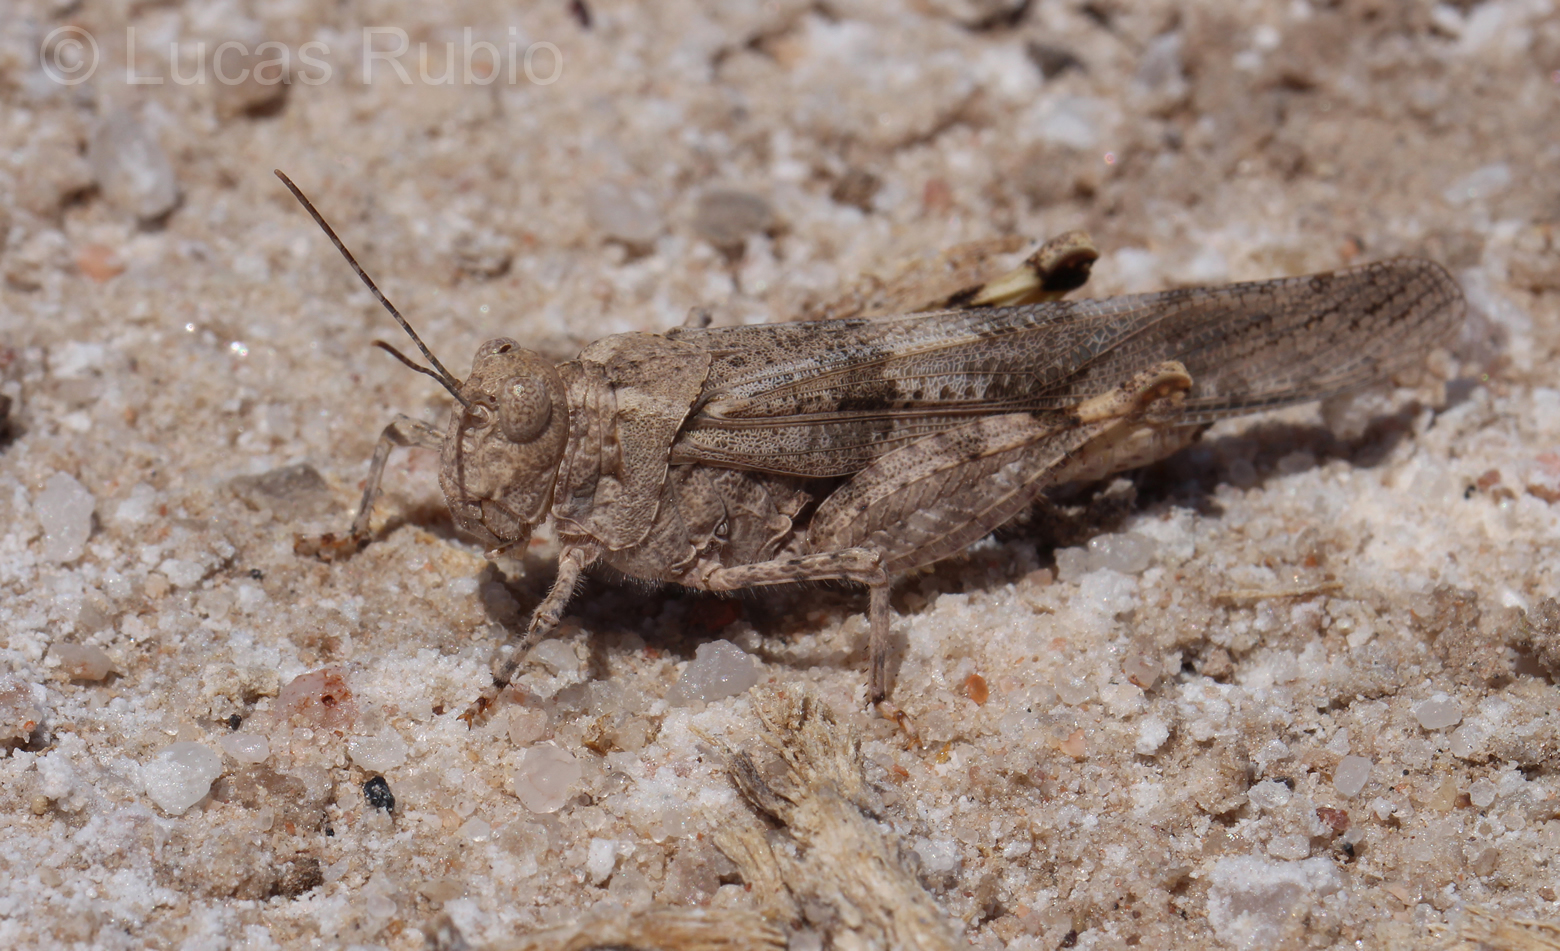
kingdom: Animalia
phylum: Arthropoda
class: Insecta
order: Orthoptera
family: Acrididae
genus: Trimerotropis
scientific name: Trimerotropis pallidipennis
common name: Pallid-winged grasshopper
